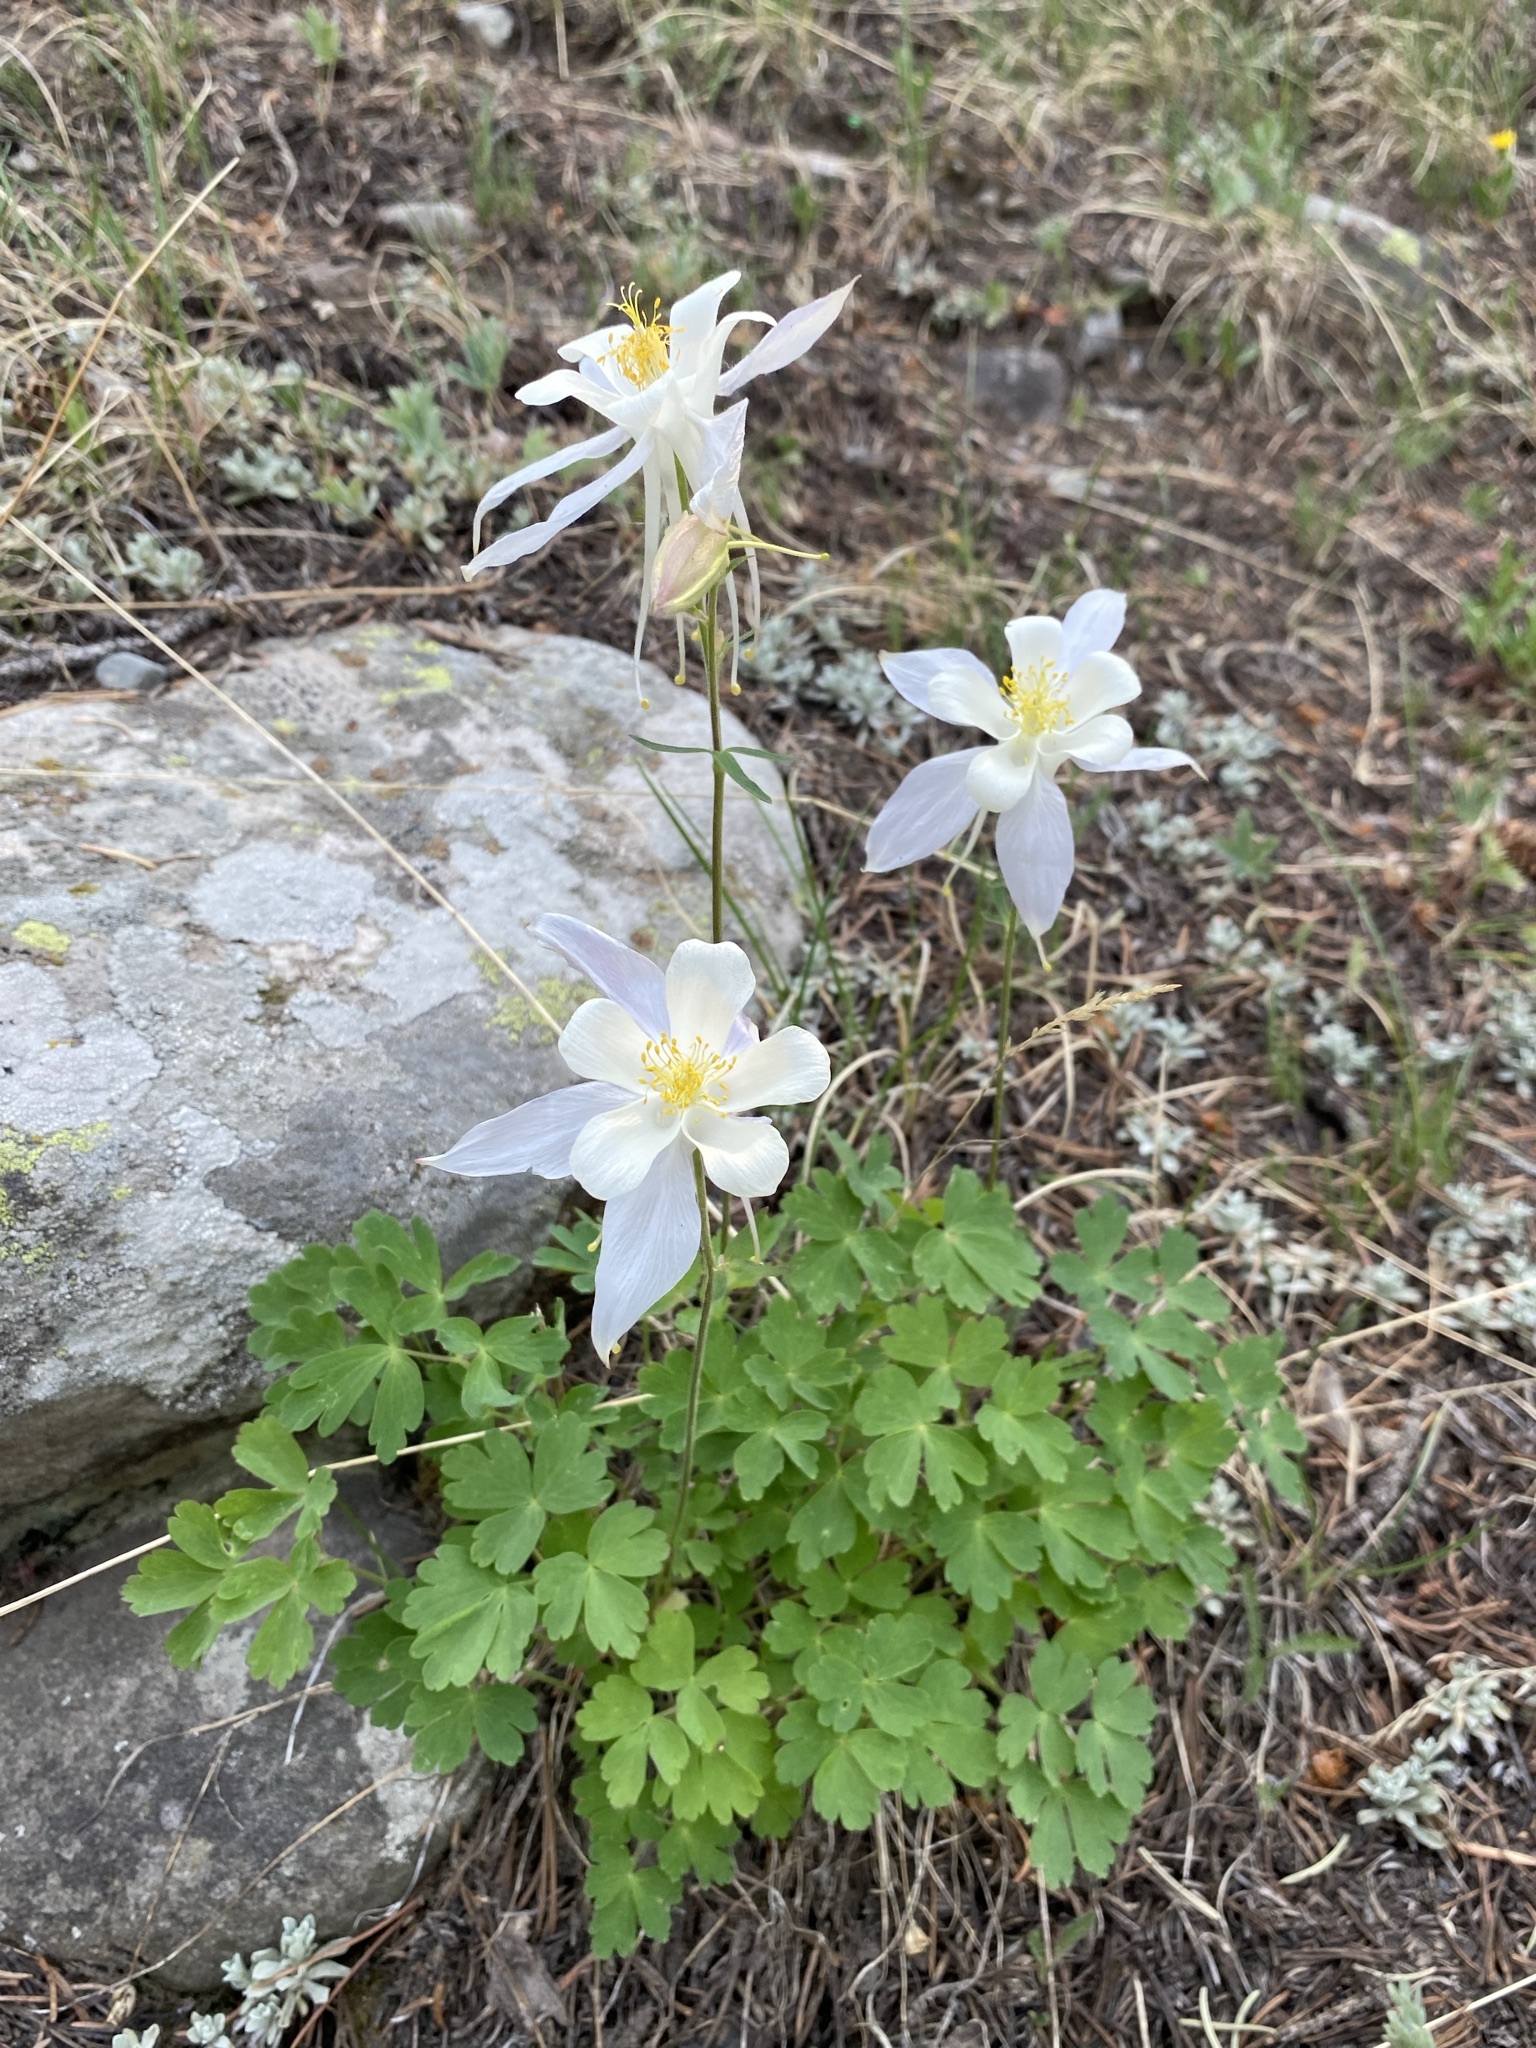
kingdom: Plantae
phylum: Tracheophyta
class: Magnoliopsida
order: Ranunculales
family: Ranunculaceae
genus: Aquilegia
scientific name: Aquilegia coerulea
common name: Rocky mountain columbine
